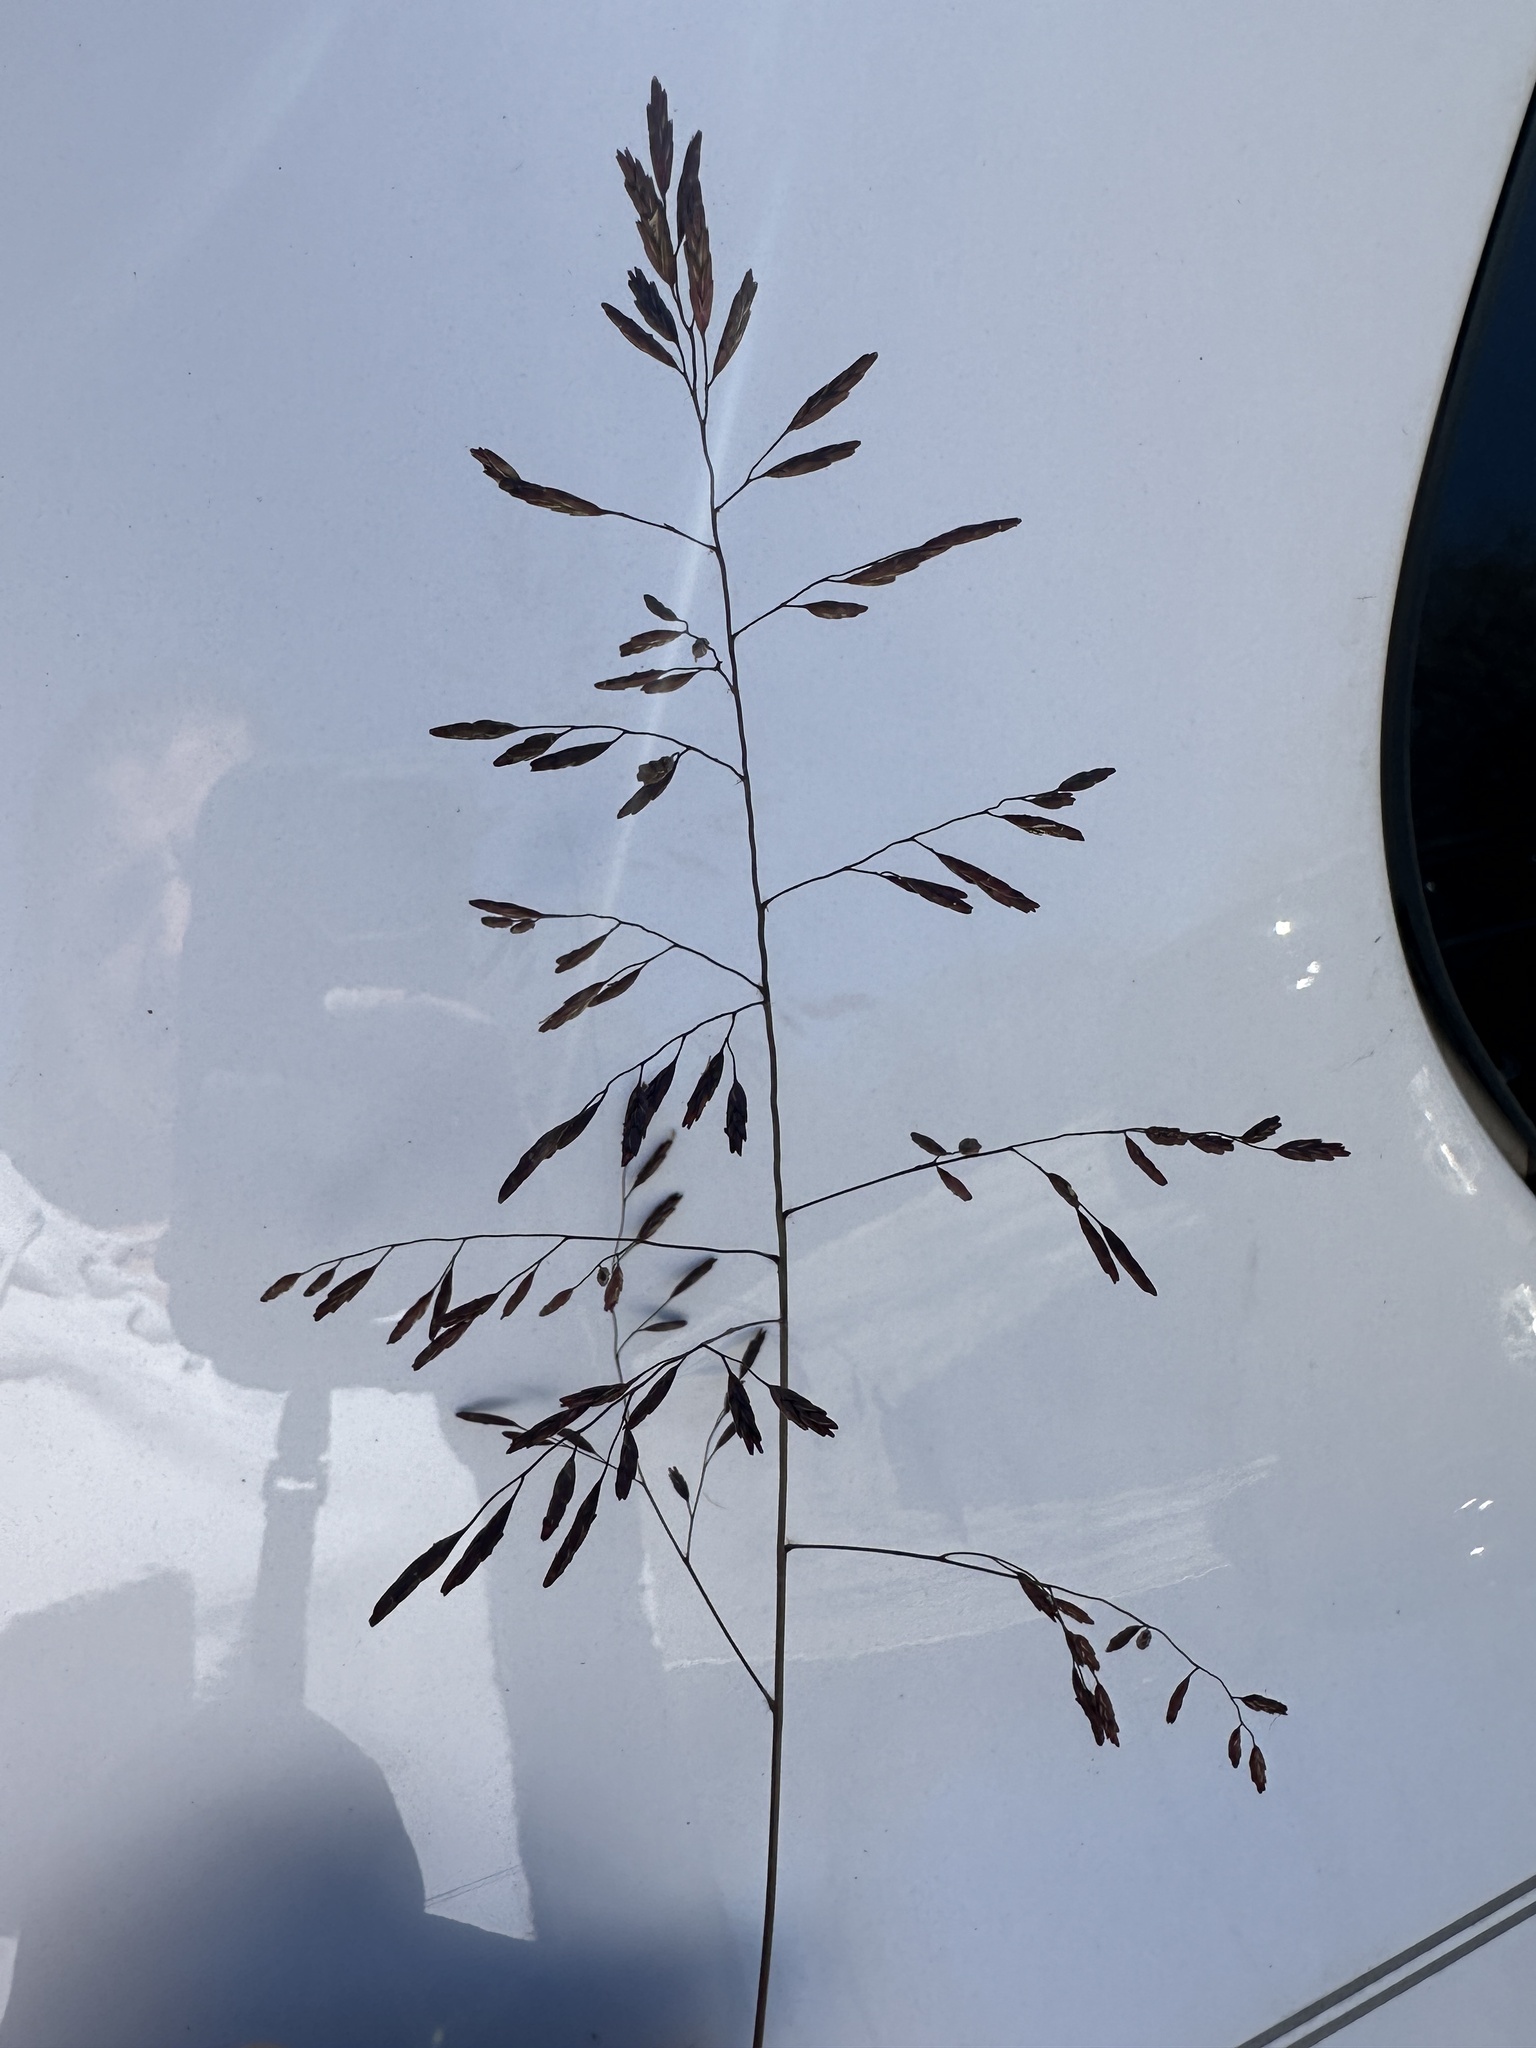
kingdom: Plantae
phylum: Tracheophyta
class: Liliopsida
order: Poales
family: Poaceae
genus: Tridens
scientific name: Tridens chapmanii
